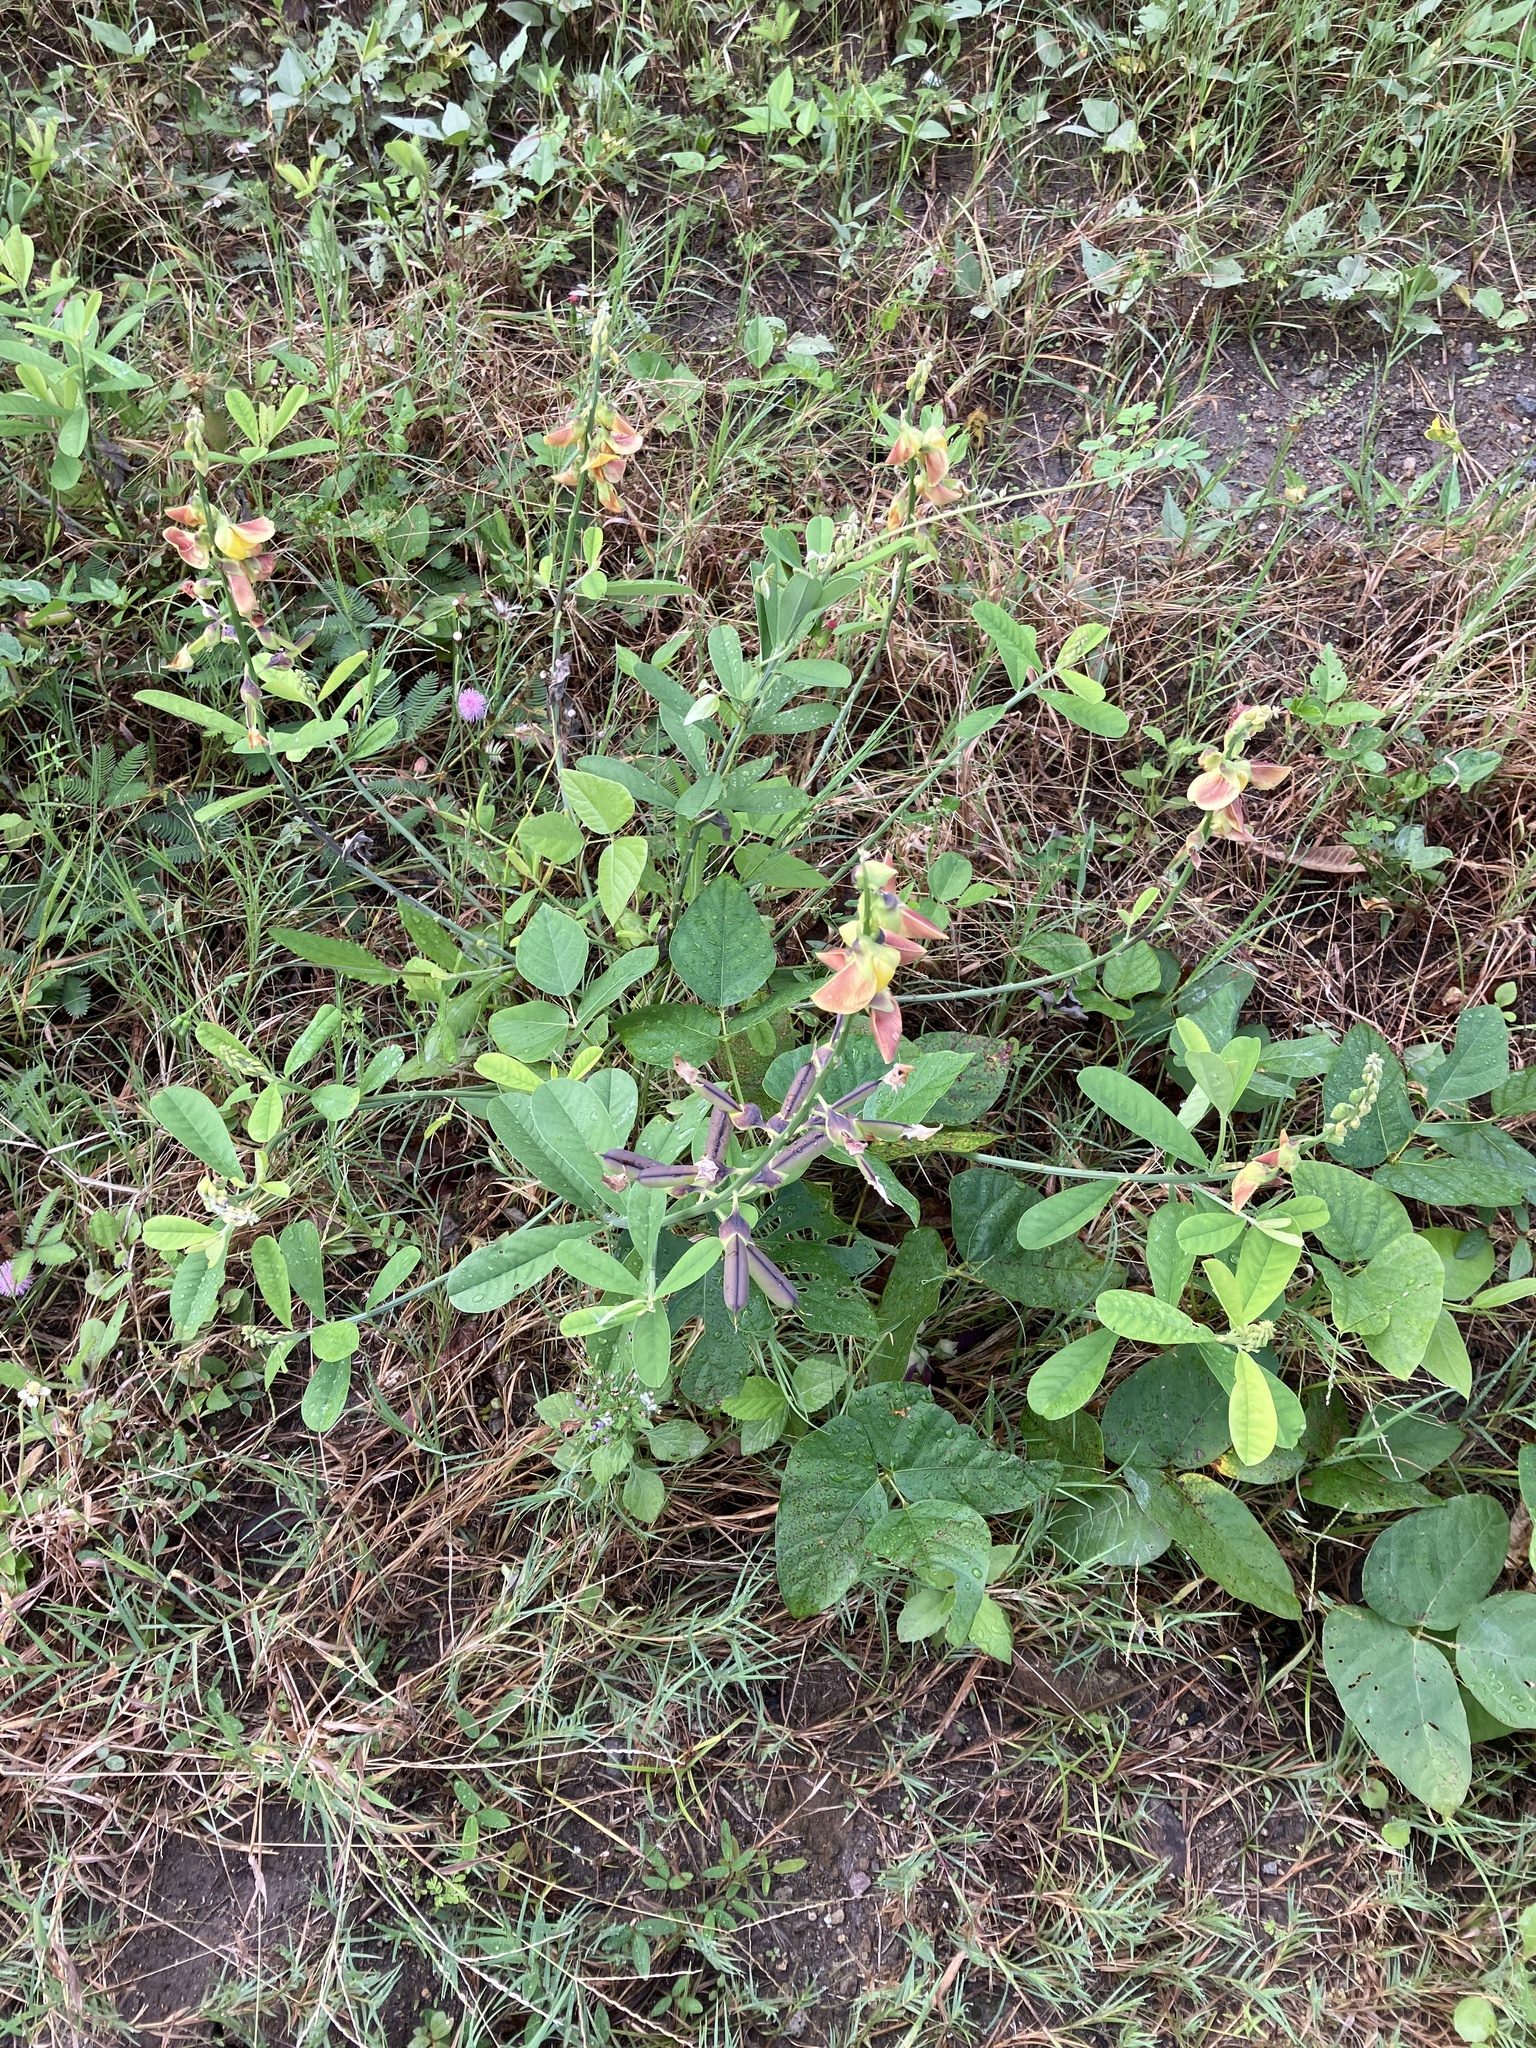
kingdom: Plantae
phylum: Tracheophyta
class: Magnoliopsida
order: Fabales
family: Fabaceae
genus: Crotalaria
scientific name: Crotalaria retusa
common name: Rattleweed
